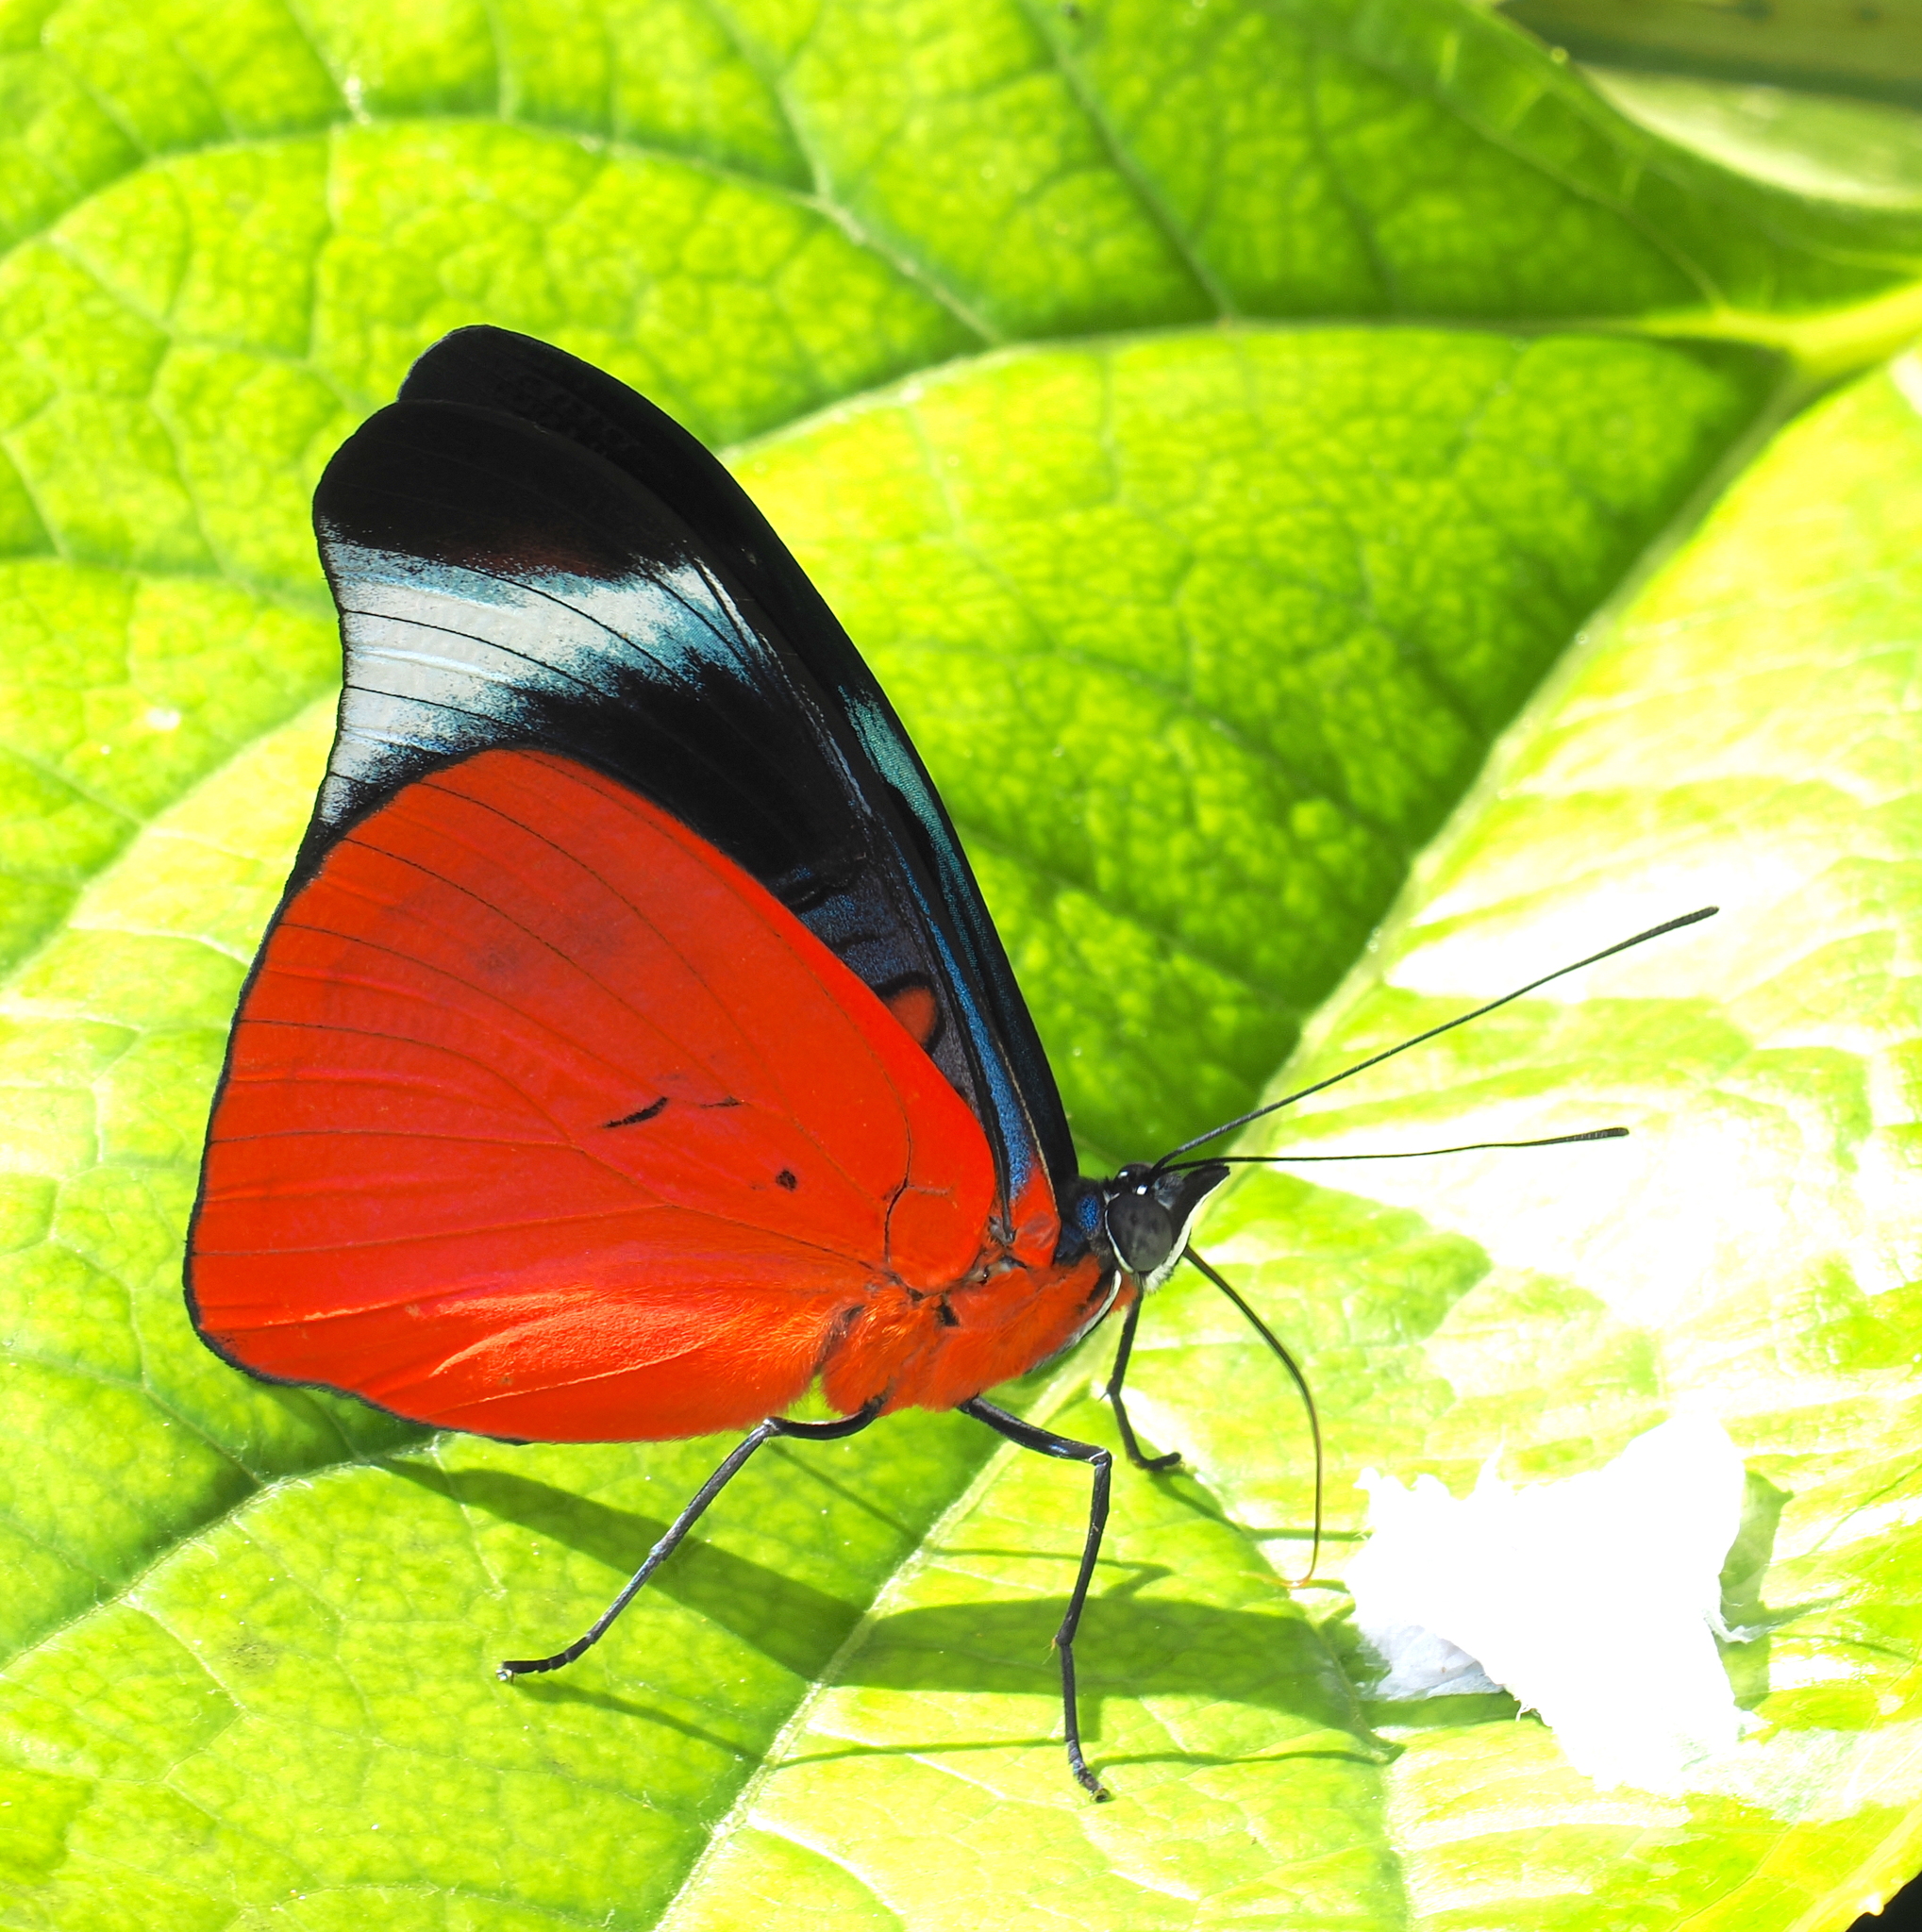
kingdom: Animalia
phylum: Arthropoda
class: Insecta
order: Lepidoptera
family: Nymphalidae
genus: Panacea
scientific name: Panacea prola
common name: Red flasher
